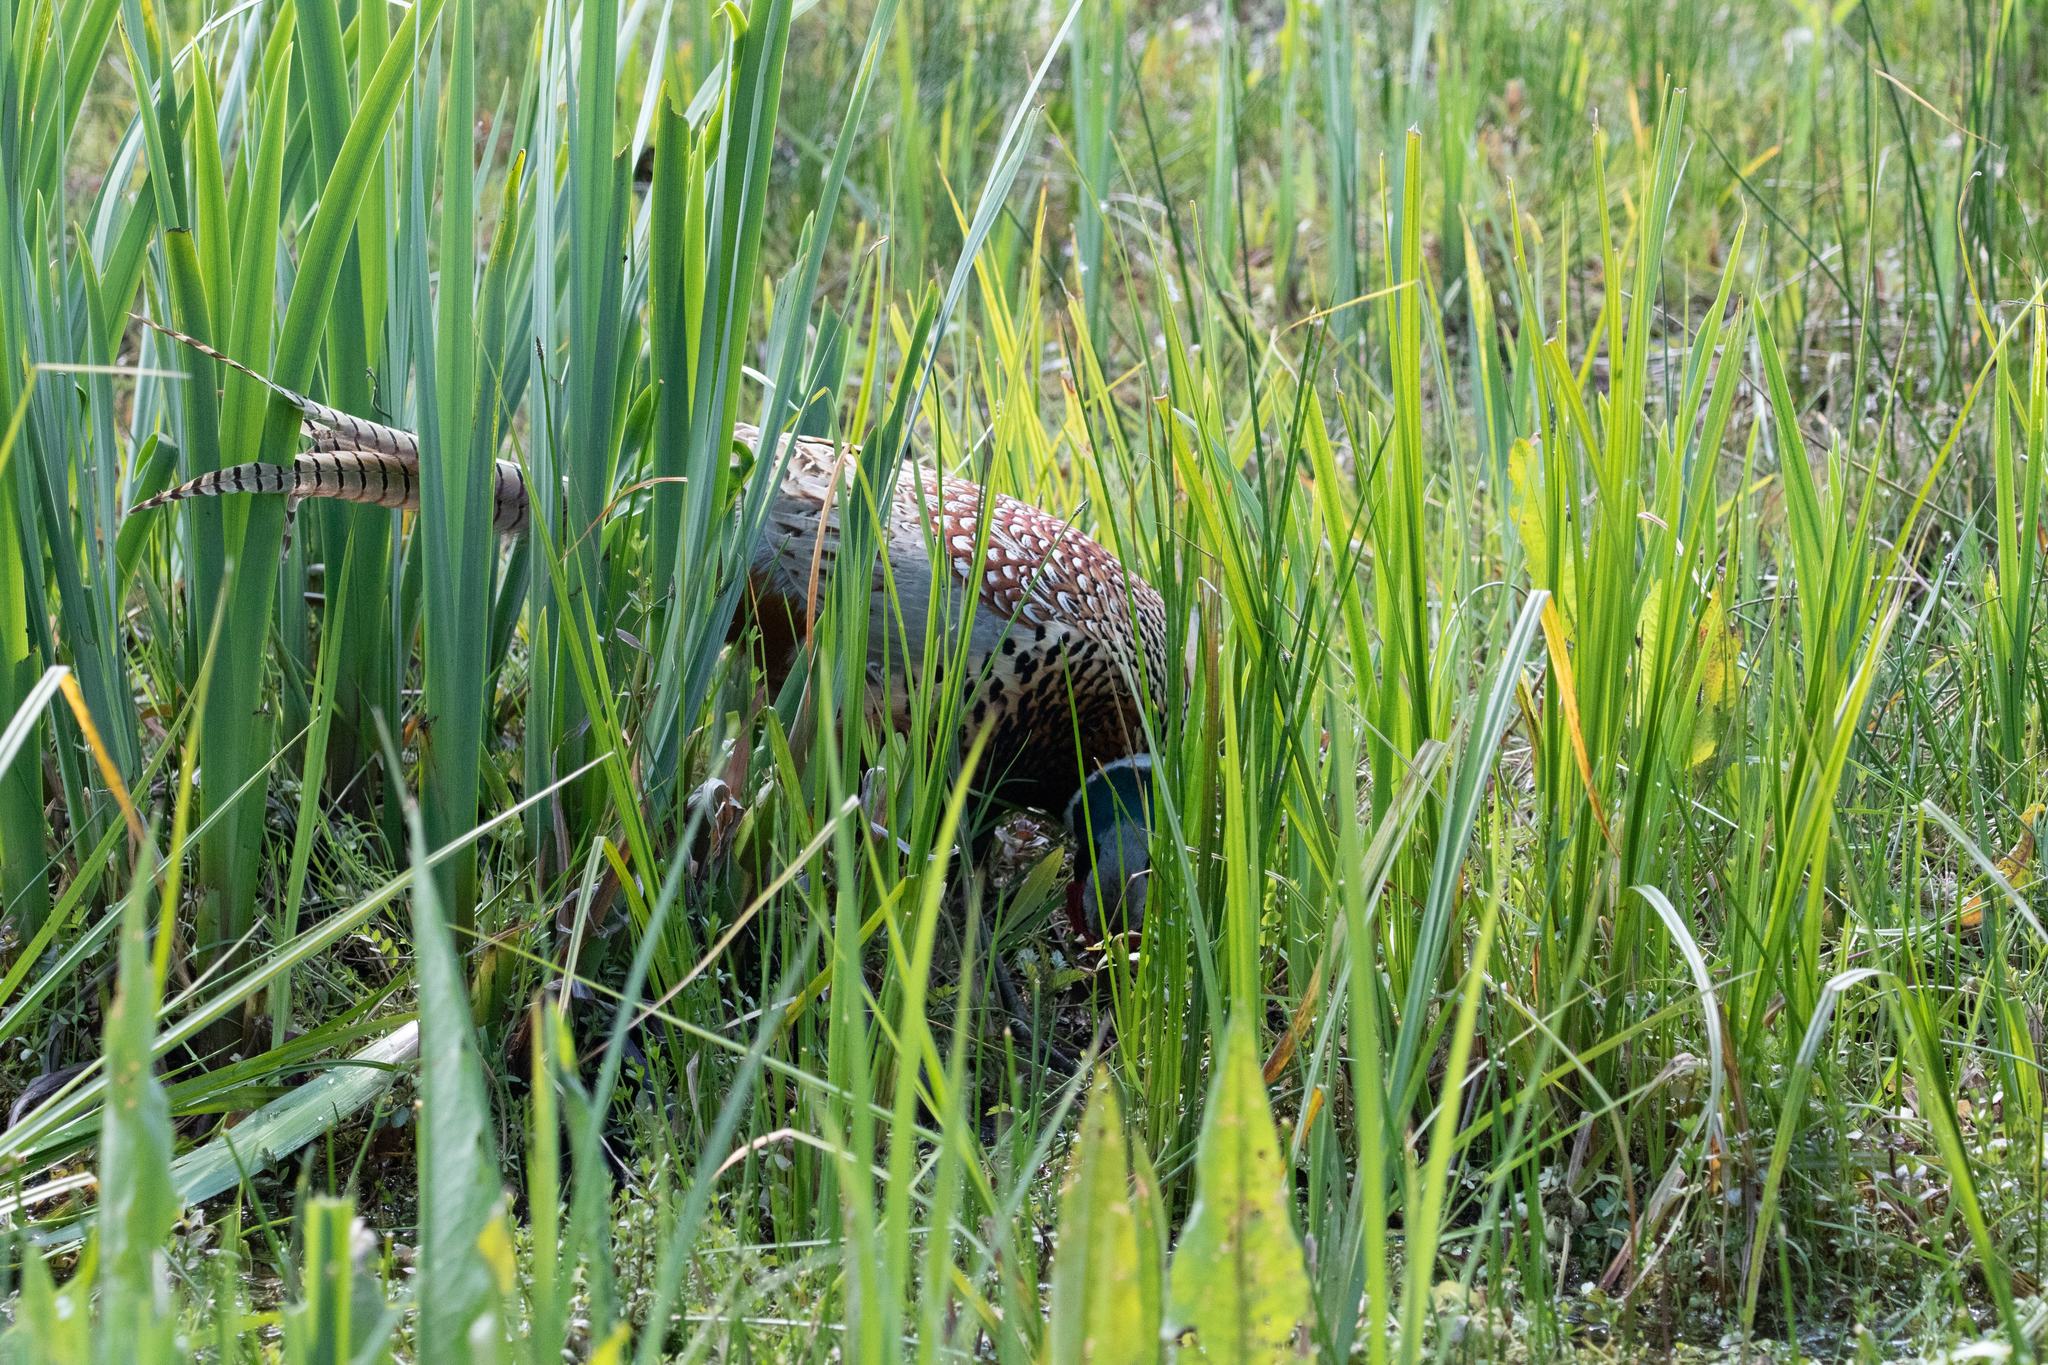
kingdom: Animalia
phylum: Chordata
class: Aves
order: Galliformes
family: Phasianidae
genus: Phasianus
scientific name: Phasianus colchicus
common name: Common pheasant
